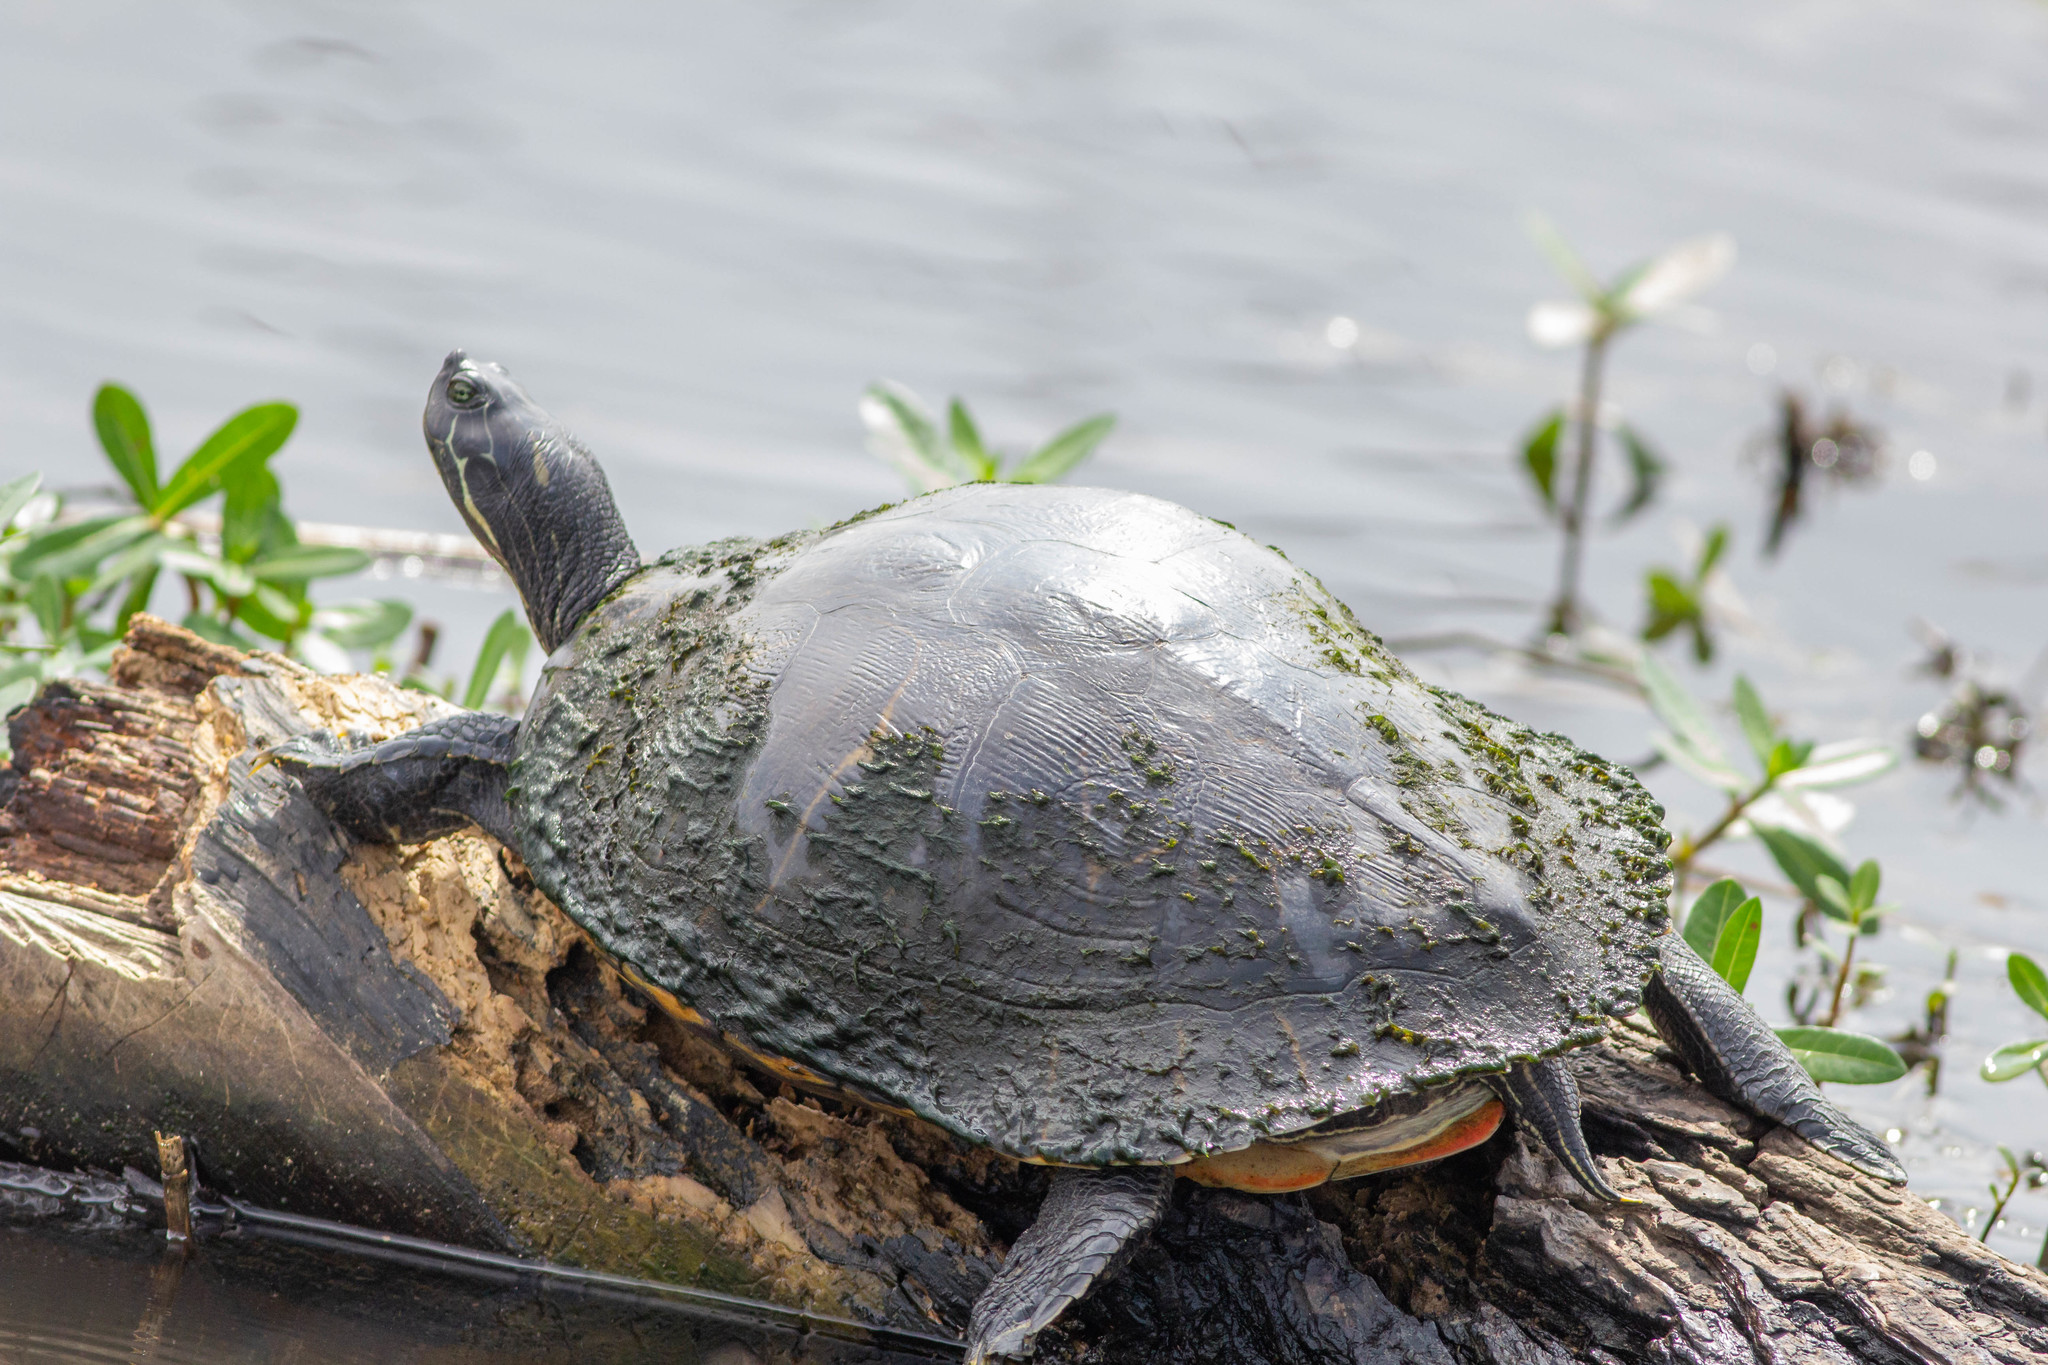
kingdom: Animalia
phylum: Chordata
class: Testudines
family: Emydidae
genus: Pseudemys
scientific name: Pseudemys concinna
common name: Eastern river cooter
